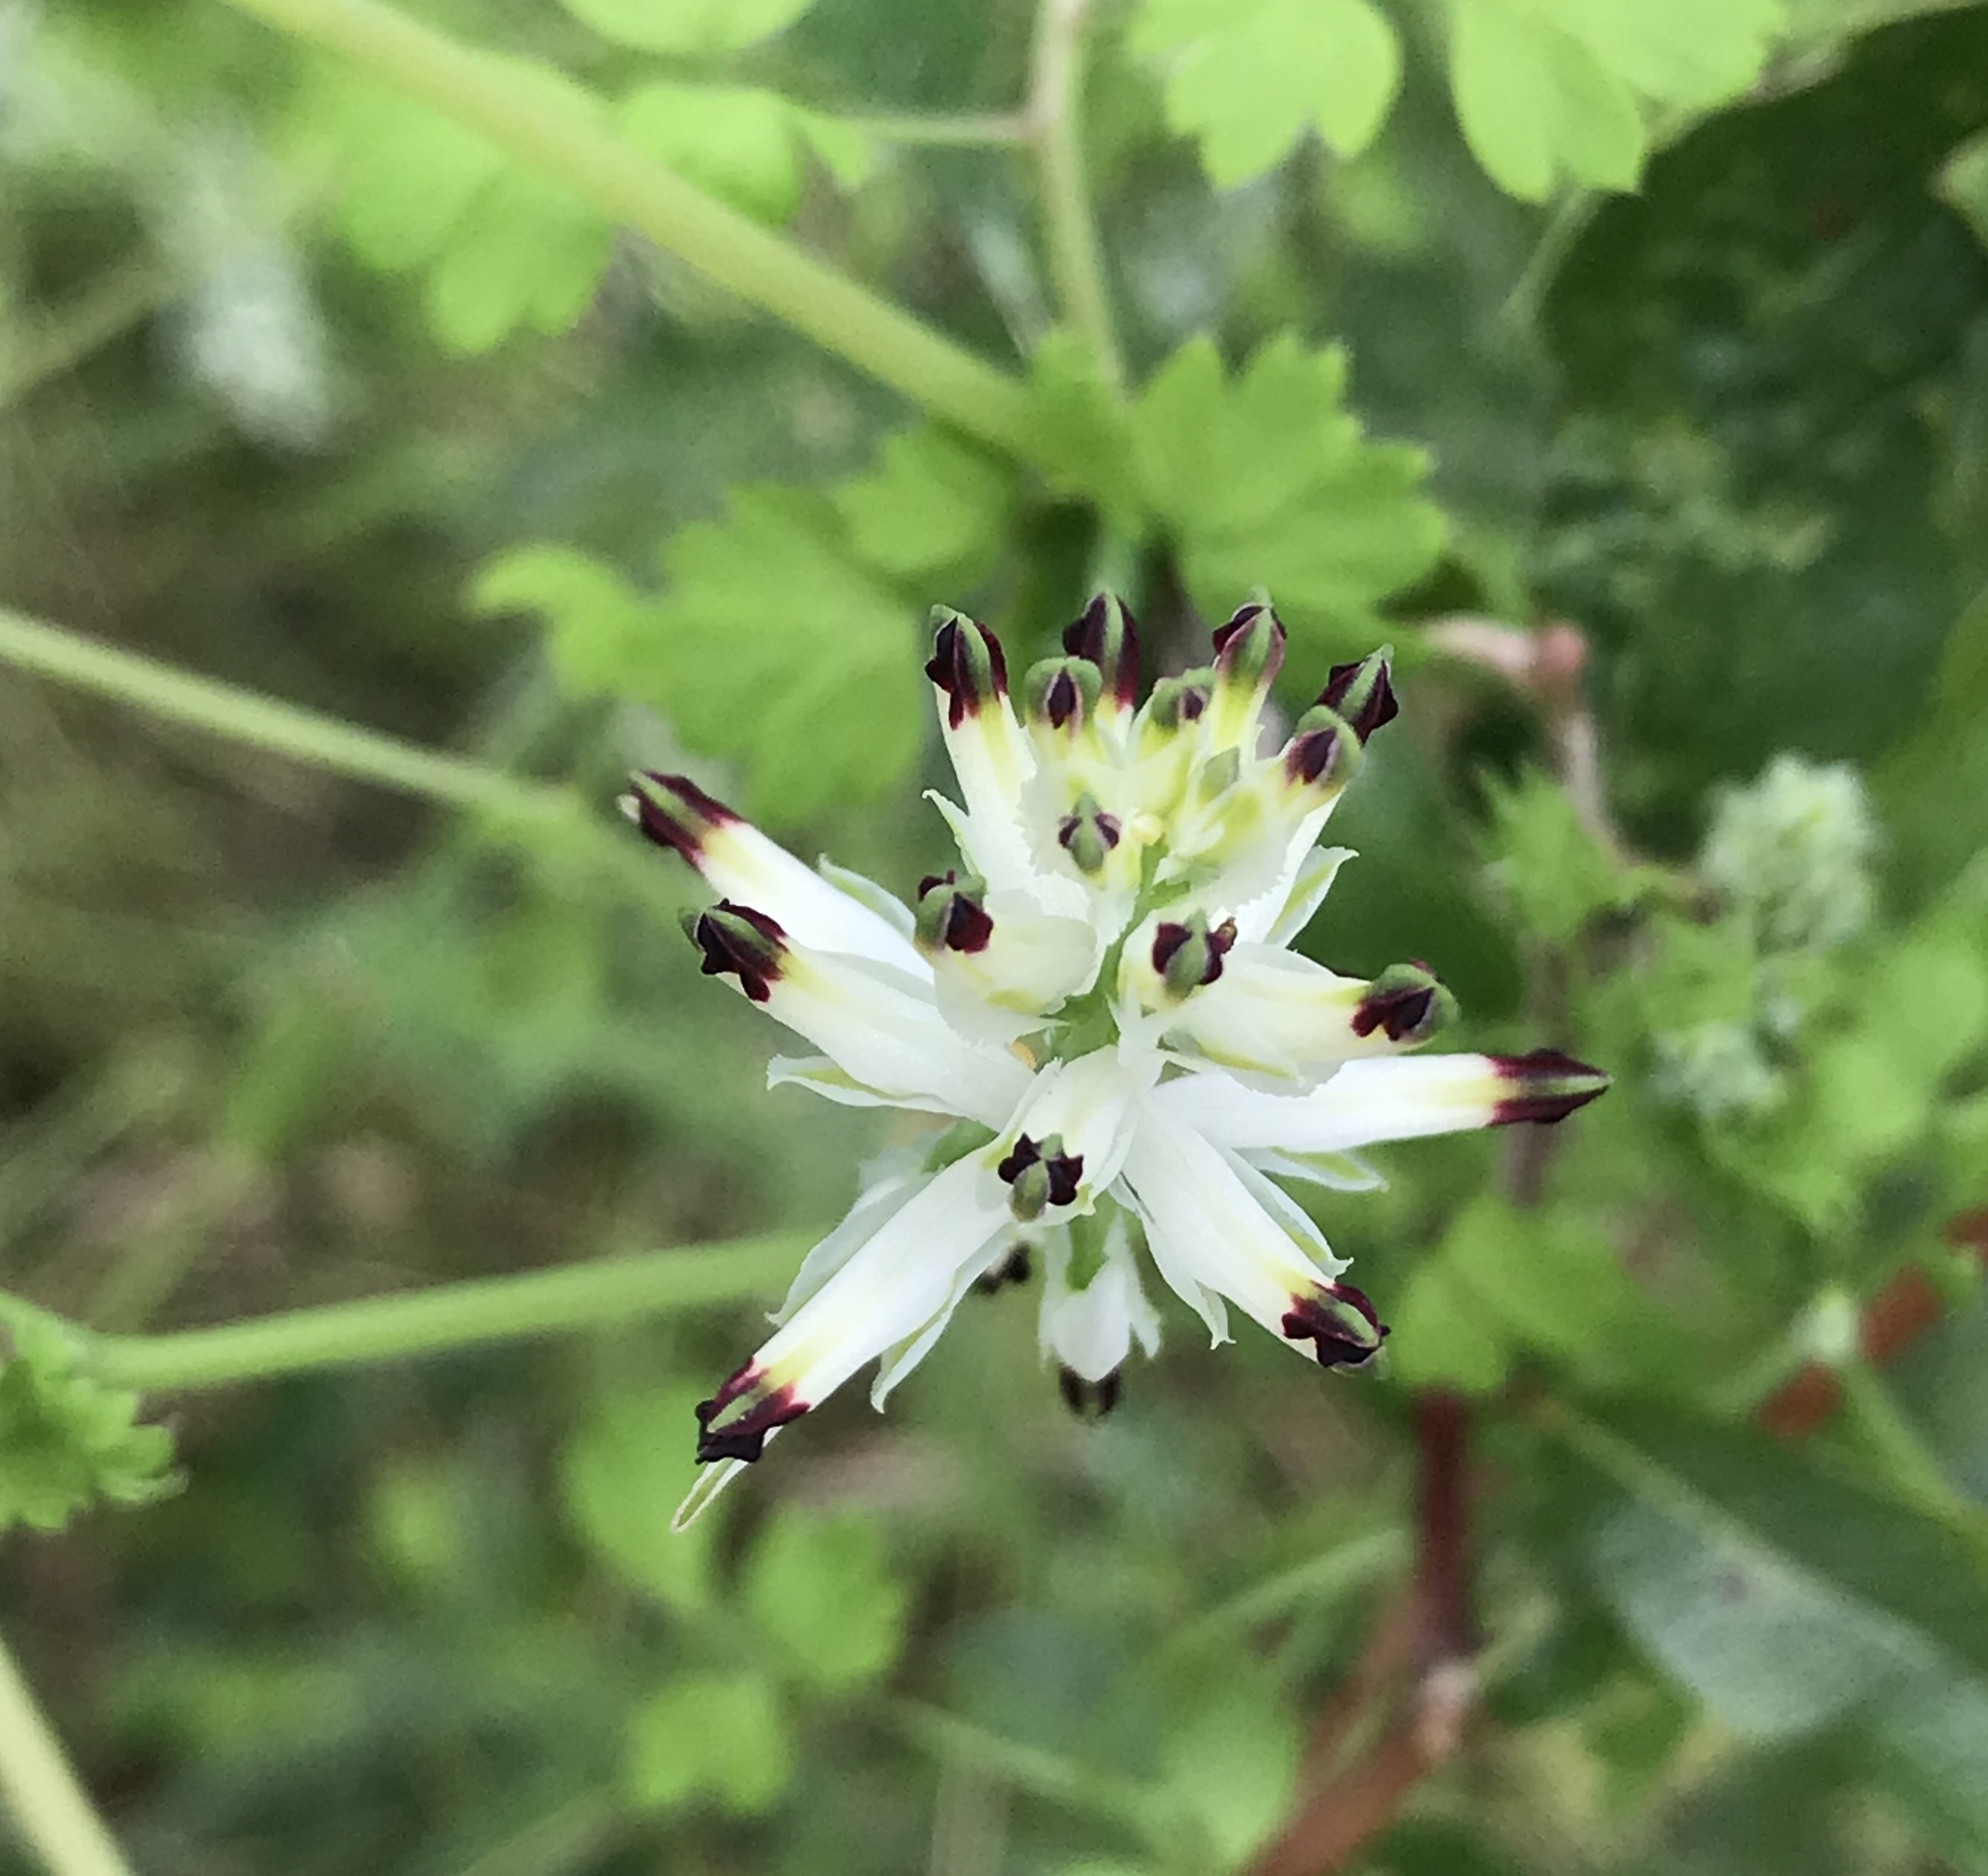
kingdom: Plantae
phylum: Tracheophyta
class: Magnoliopsida
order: Ranunculales
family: Papaveraceae
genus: Fumaria
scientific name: Fumaria capreolata
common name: White ramping-fumitory
